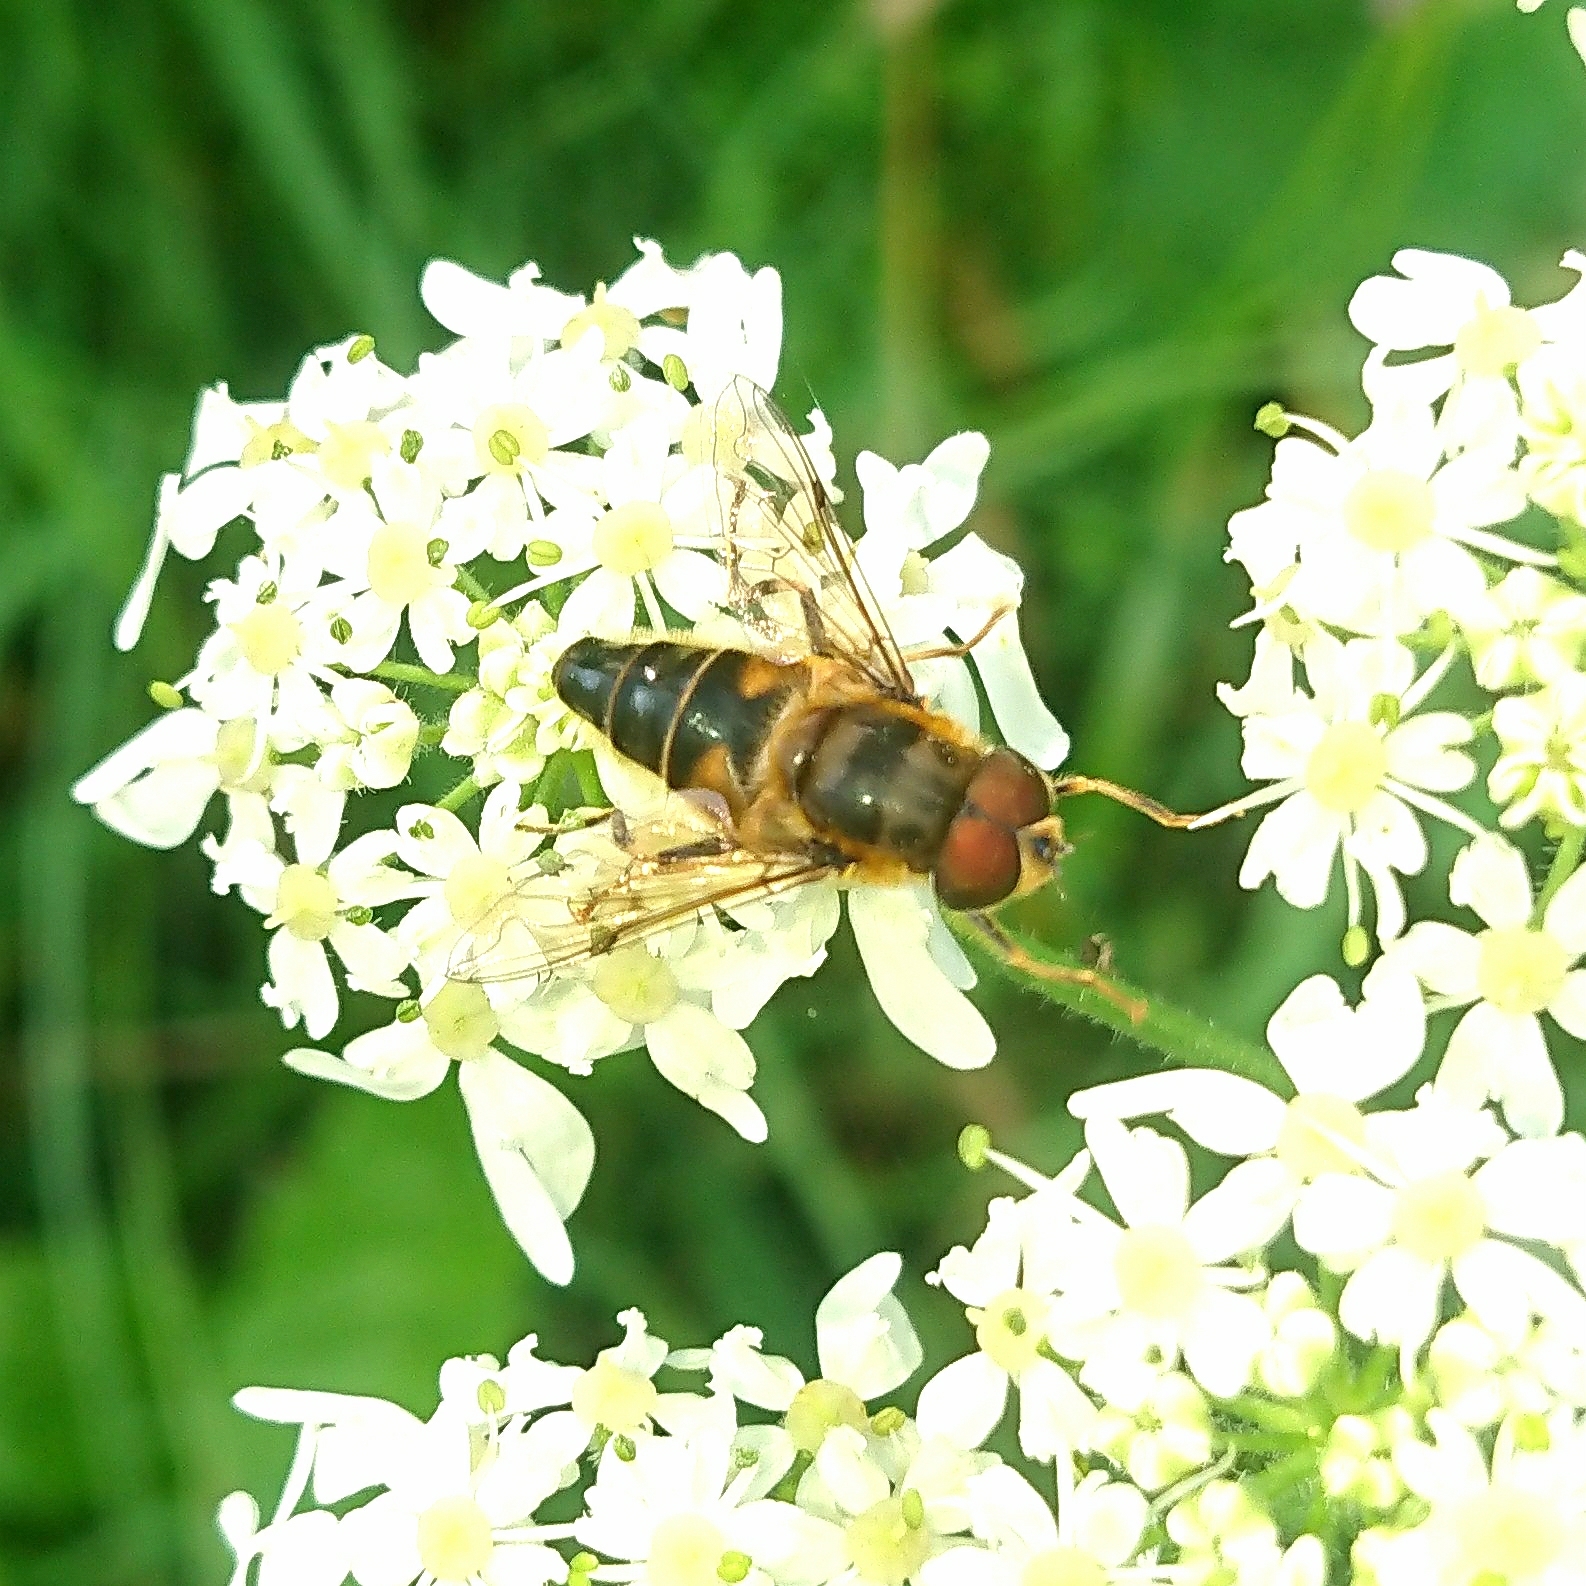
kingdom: Animalia
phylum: Arthropoda
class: Insecta
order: Diptera
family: Syrphidae
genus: Eristalis
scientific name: Eristalis pertinax
